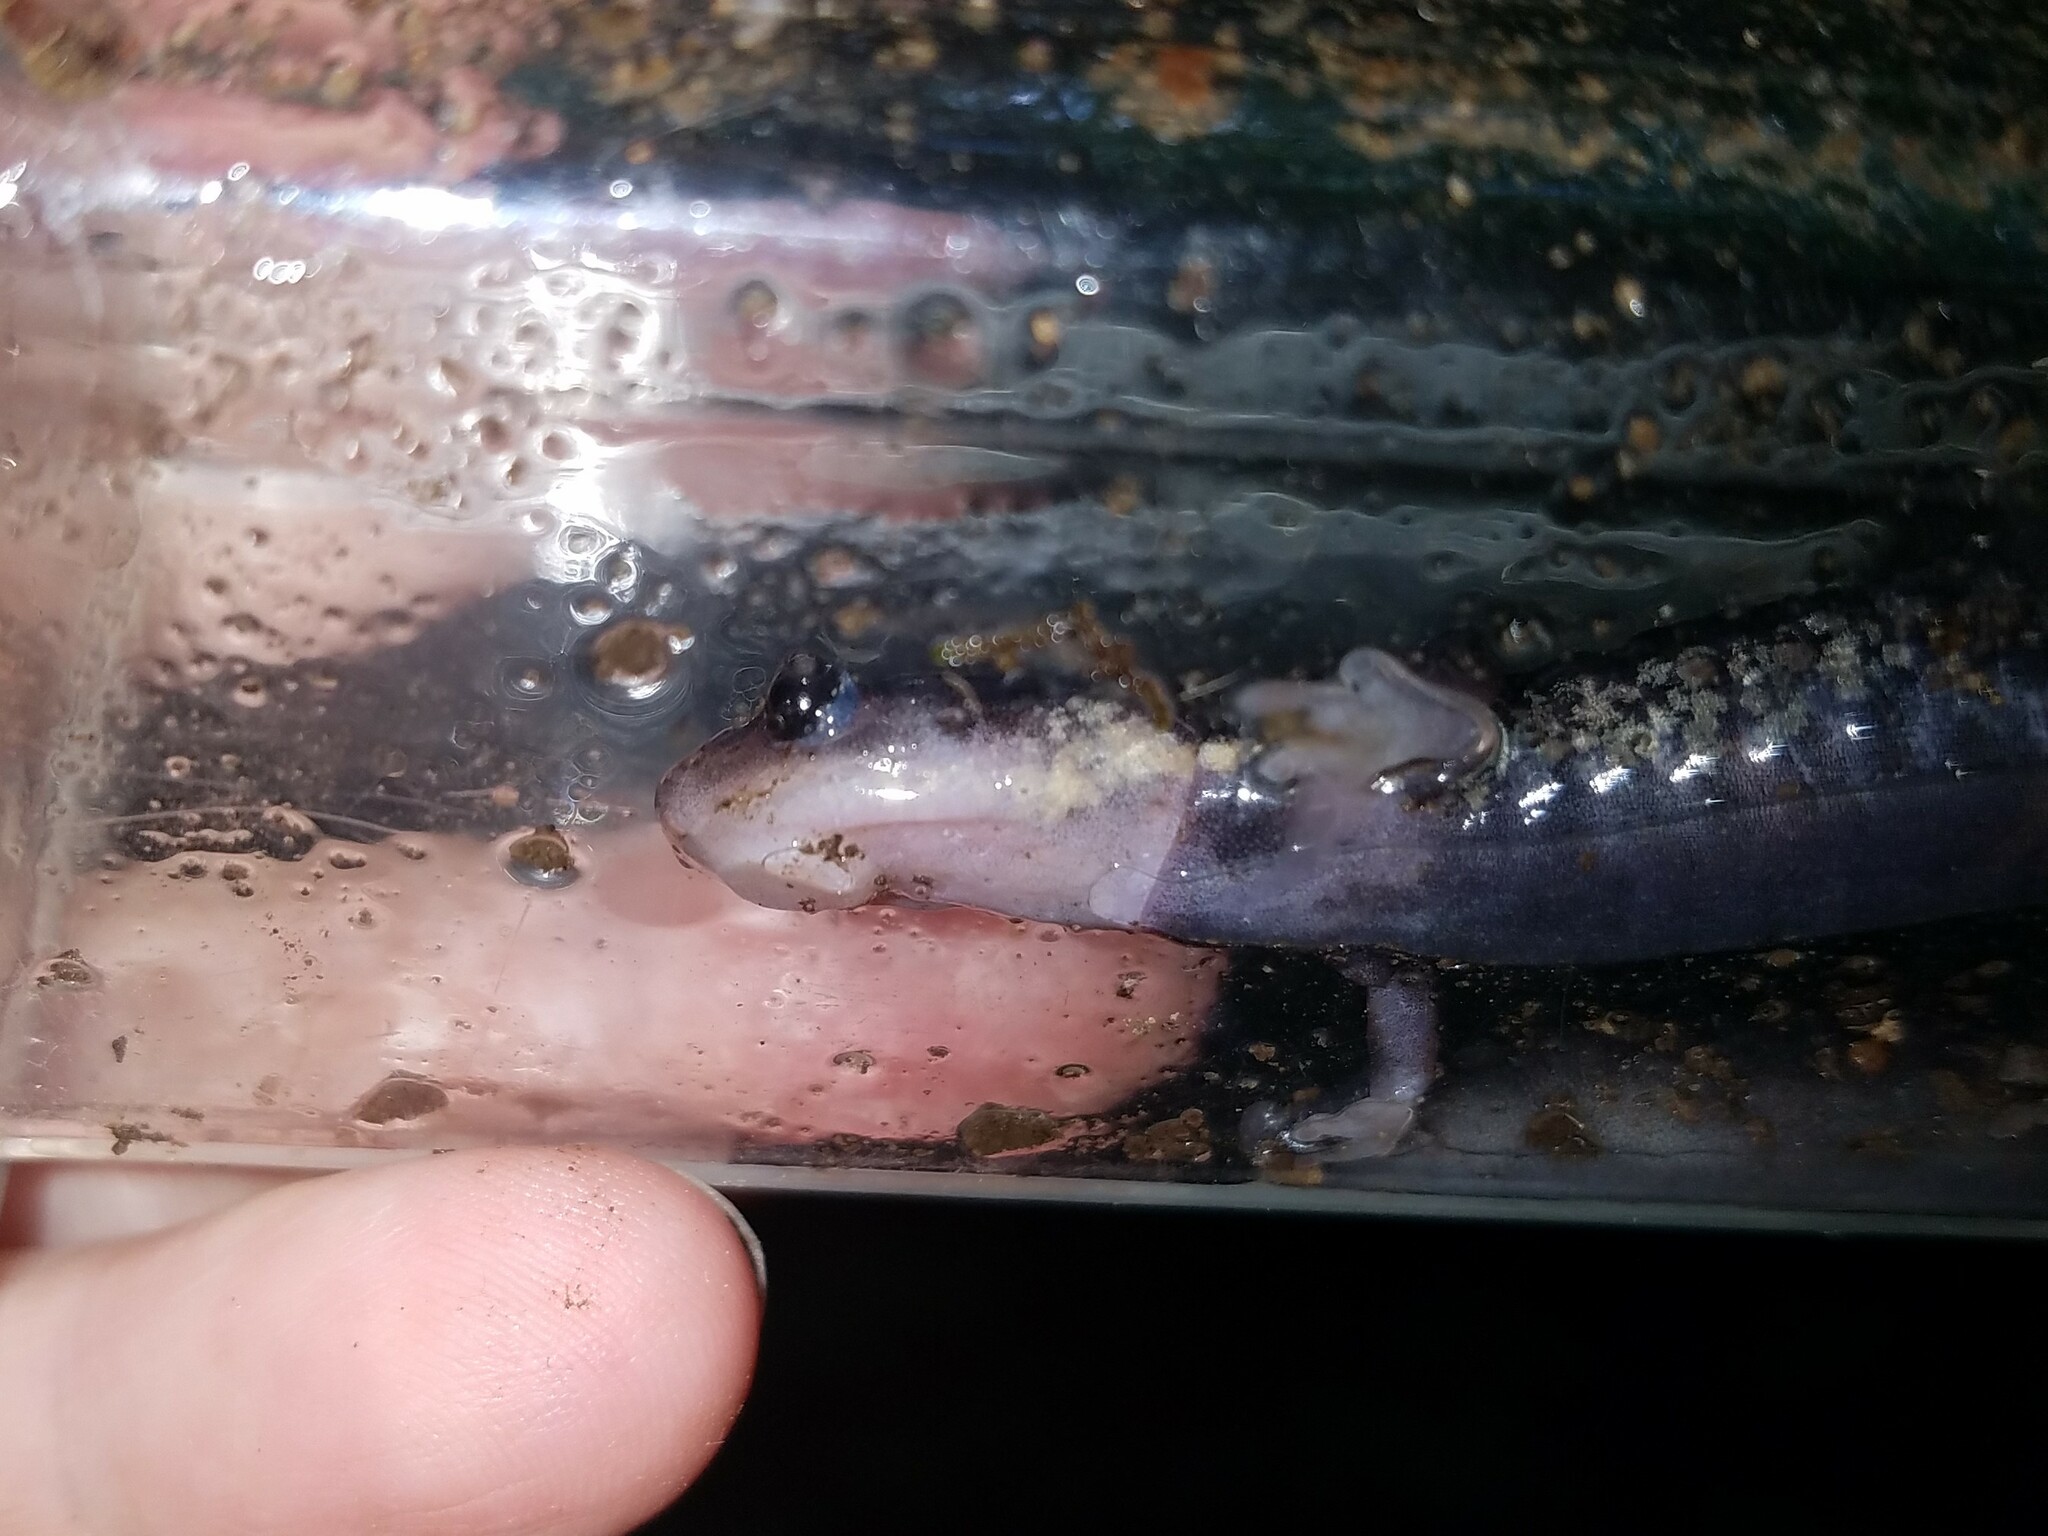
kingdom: Animalia
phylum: Chordata
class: Amphibia
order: Caudata
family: Plethodontidae
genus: Plethodon
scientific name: Plethodon chattahoochee
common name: Chattahoochee slimy salamander
